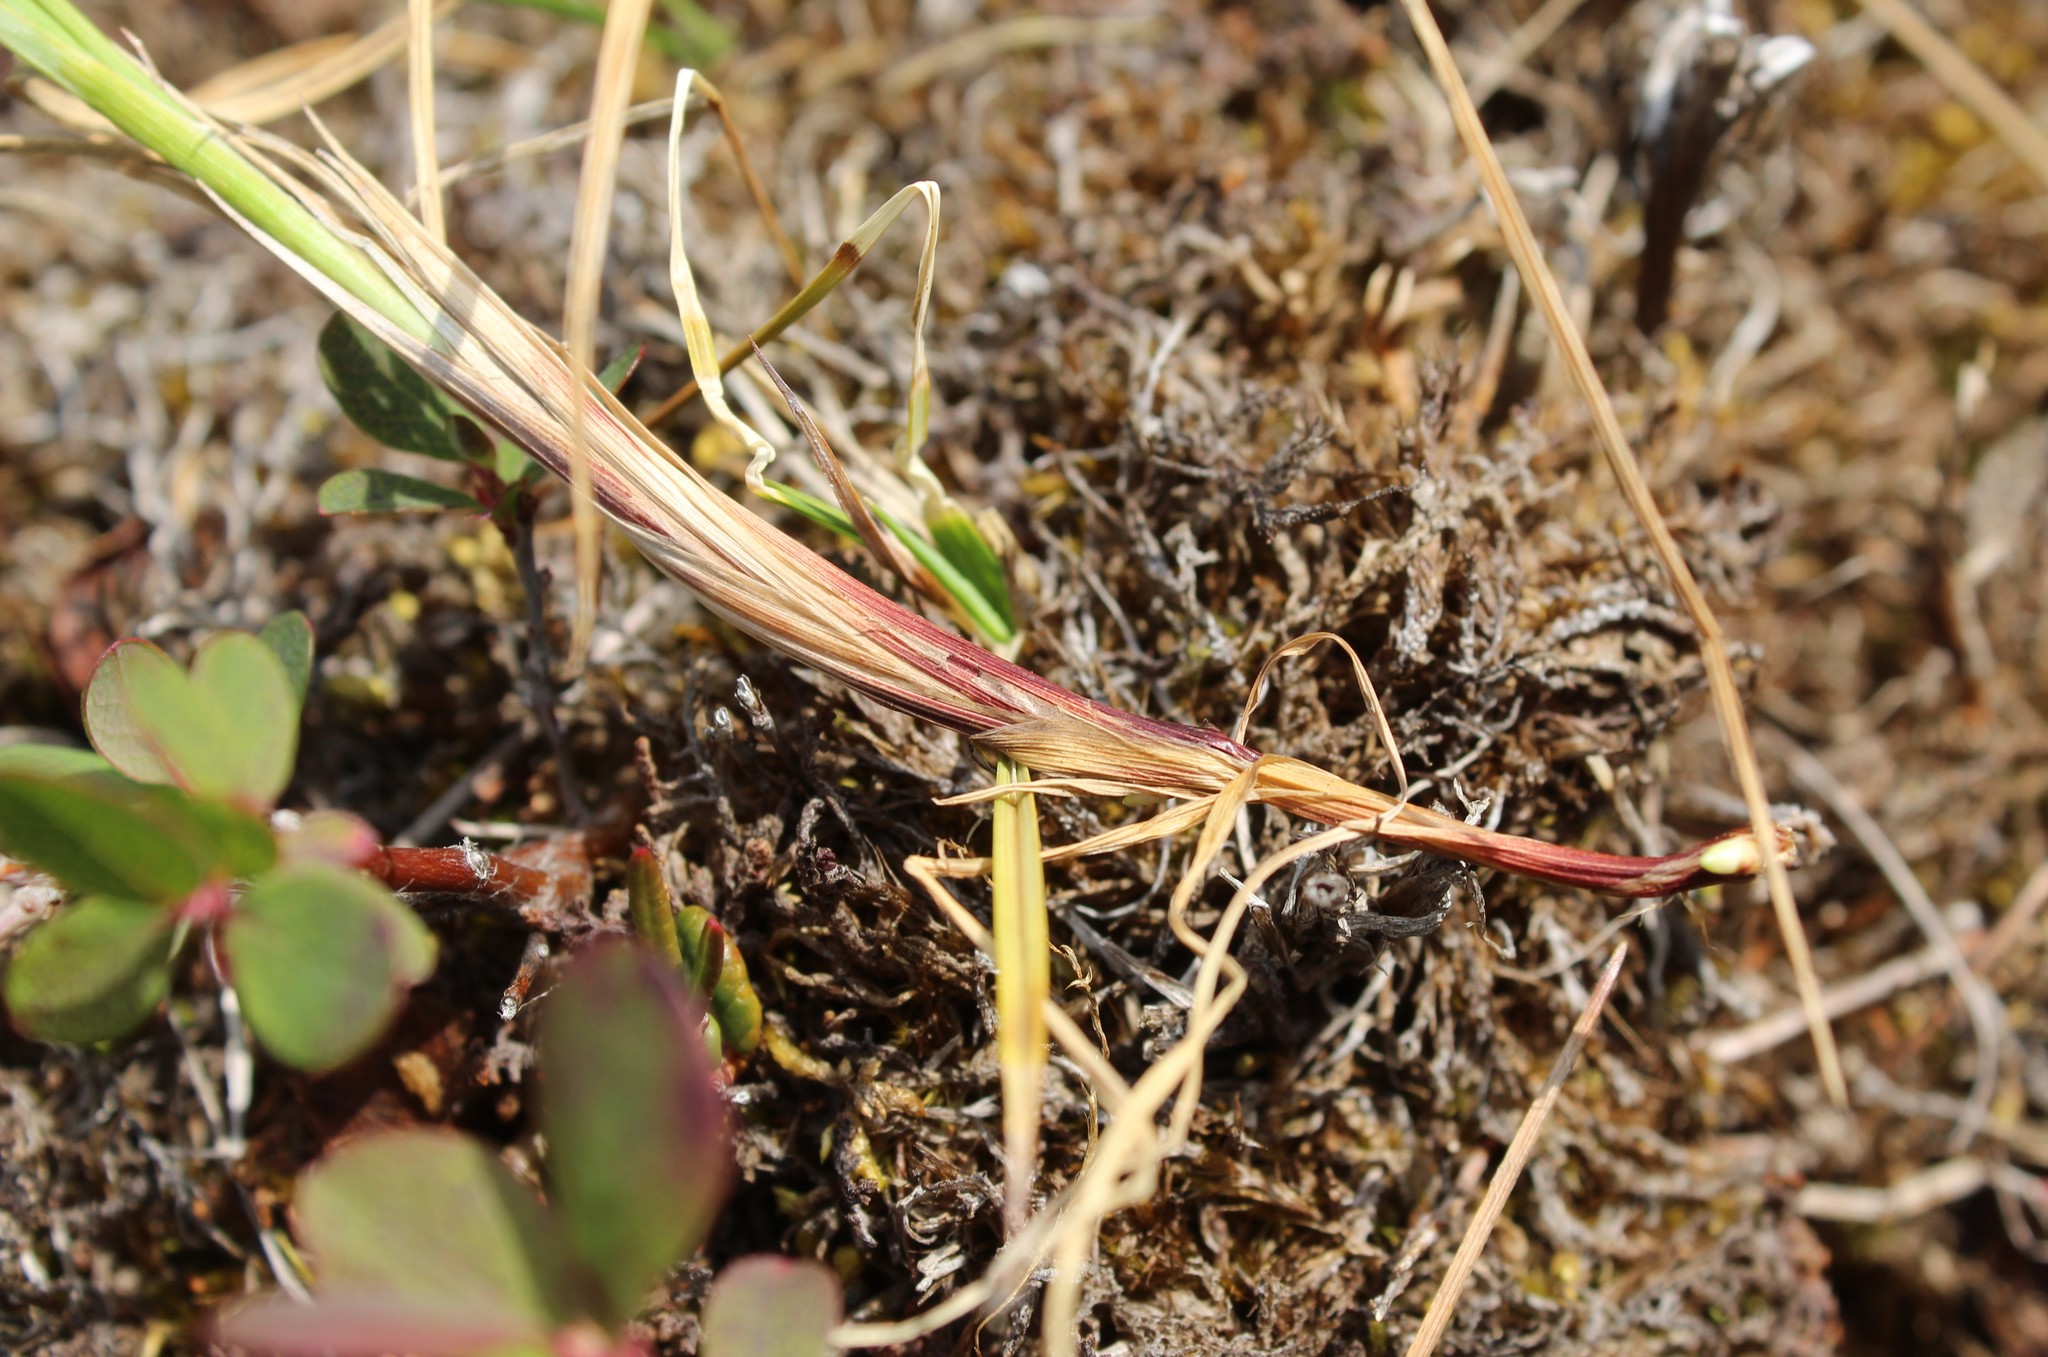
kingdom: Plantae
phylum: Tracheophyta
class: Liliopsida
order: Poales
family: Cyperaceae
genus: Carex
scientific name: Carex rariflora
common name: Loose-flowered alpine sedge
